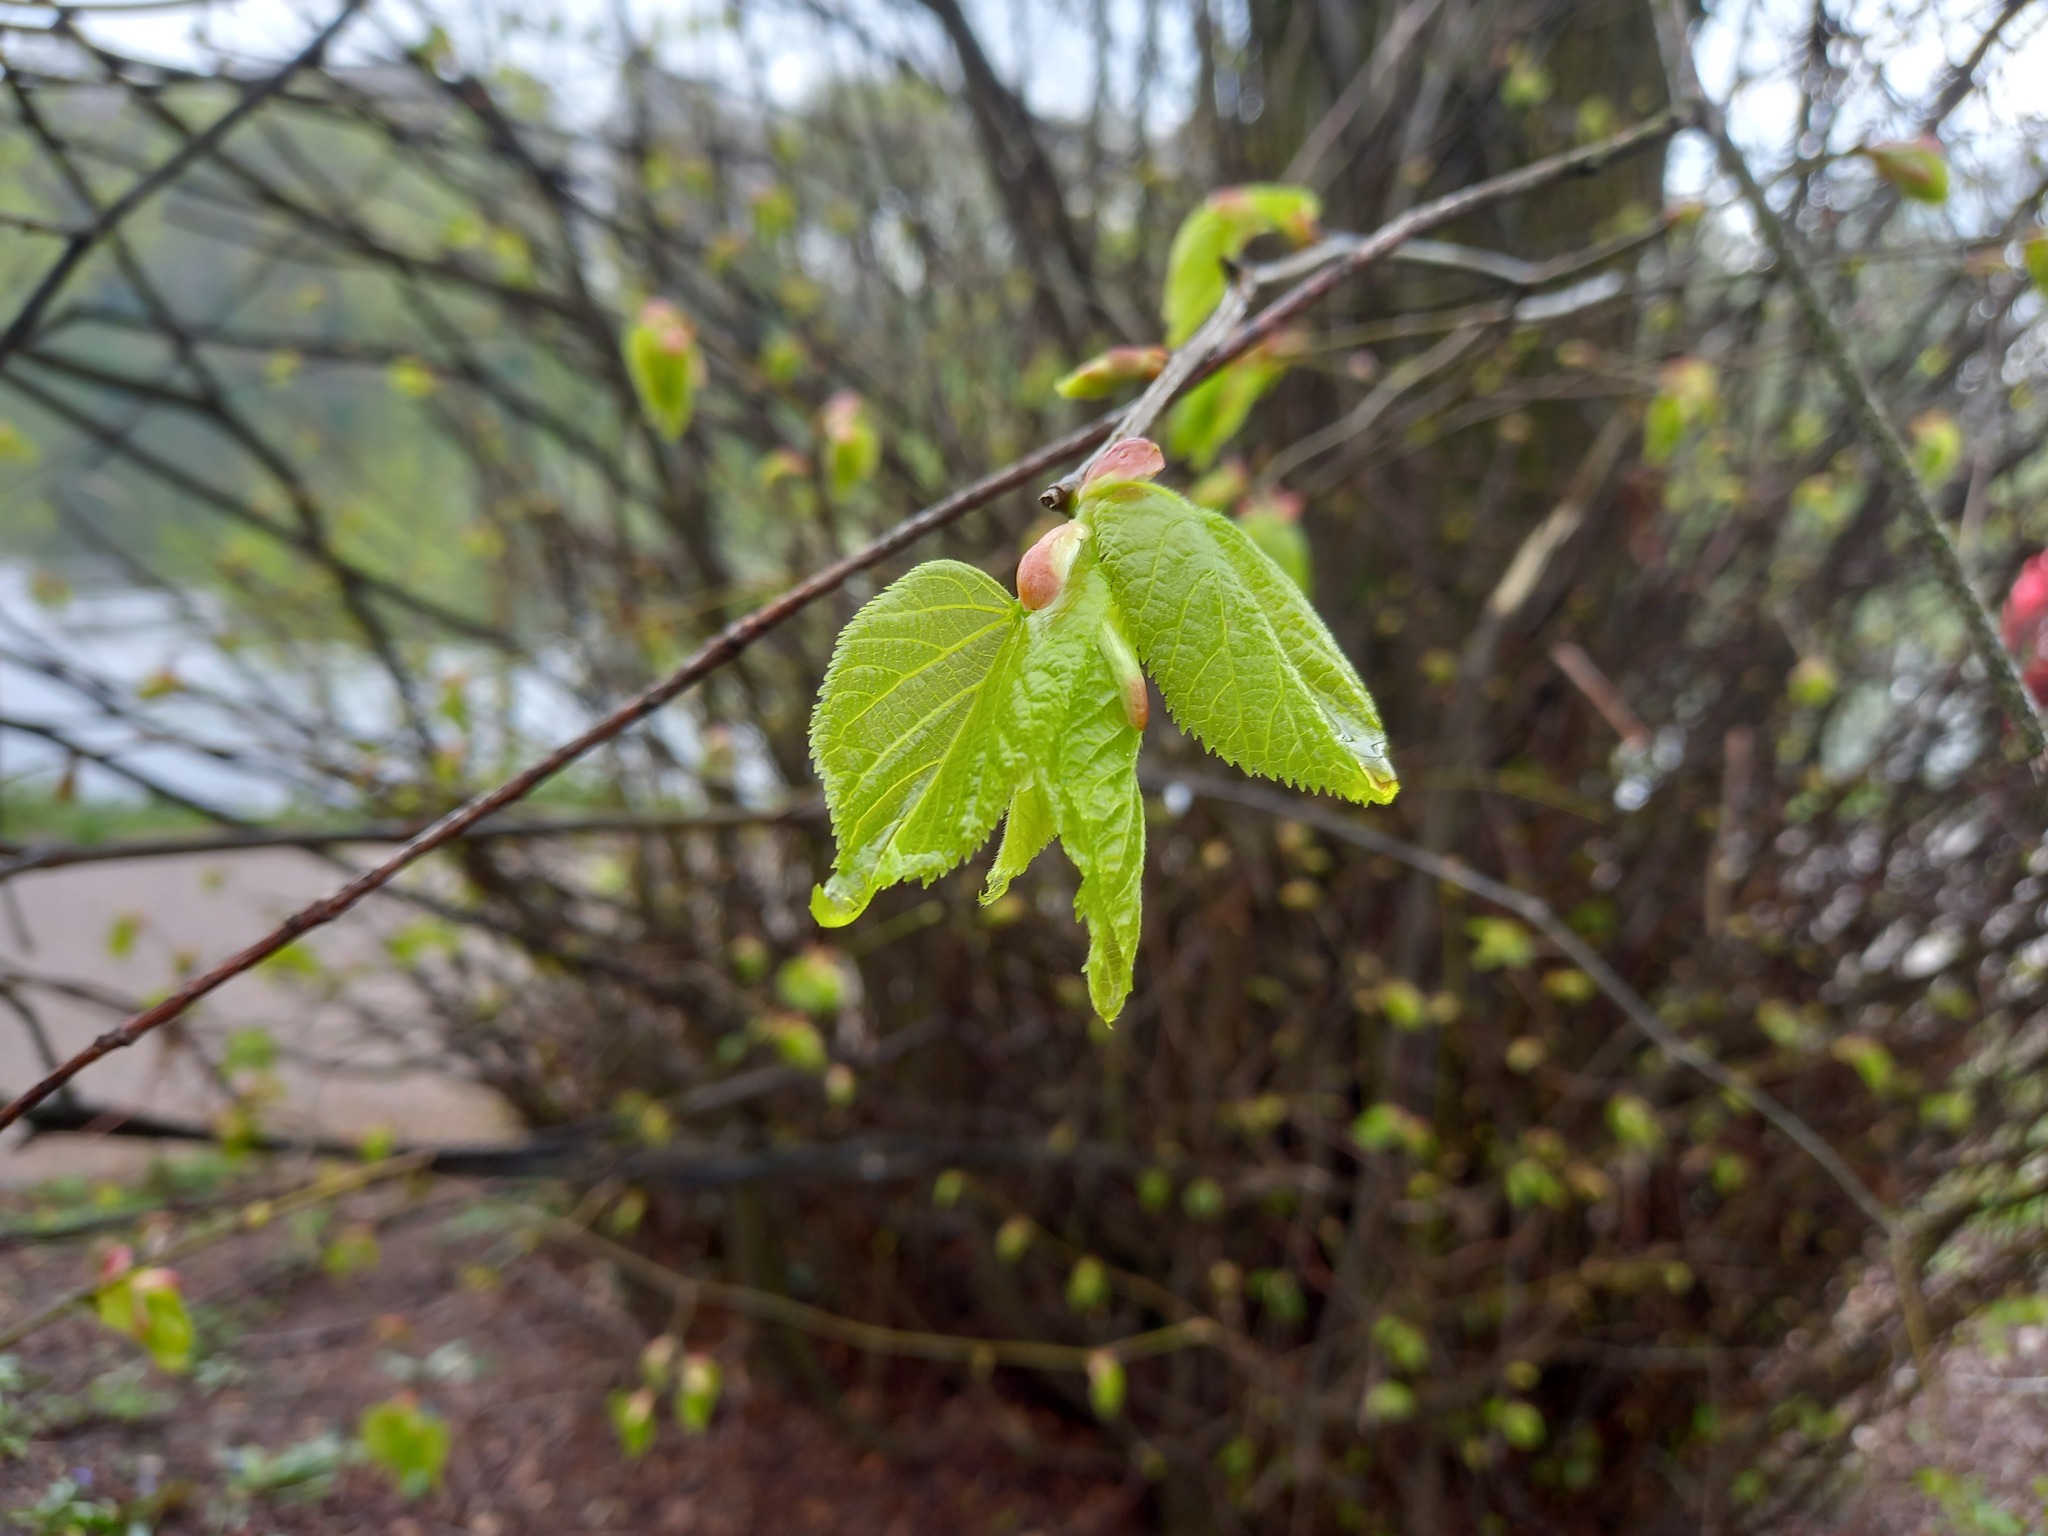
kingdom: Plantae
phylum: Tracheophyta
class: Magnoliopsida
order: Malvales
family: Malvaceae
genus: Tilia
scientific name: Tilia europaea
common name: European linden
